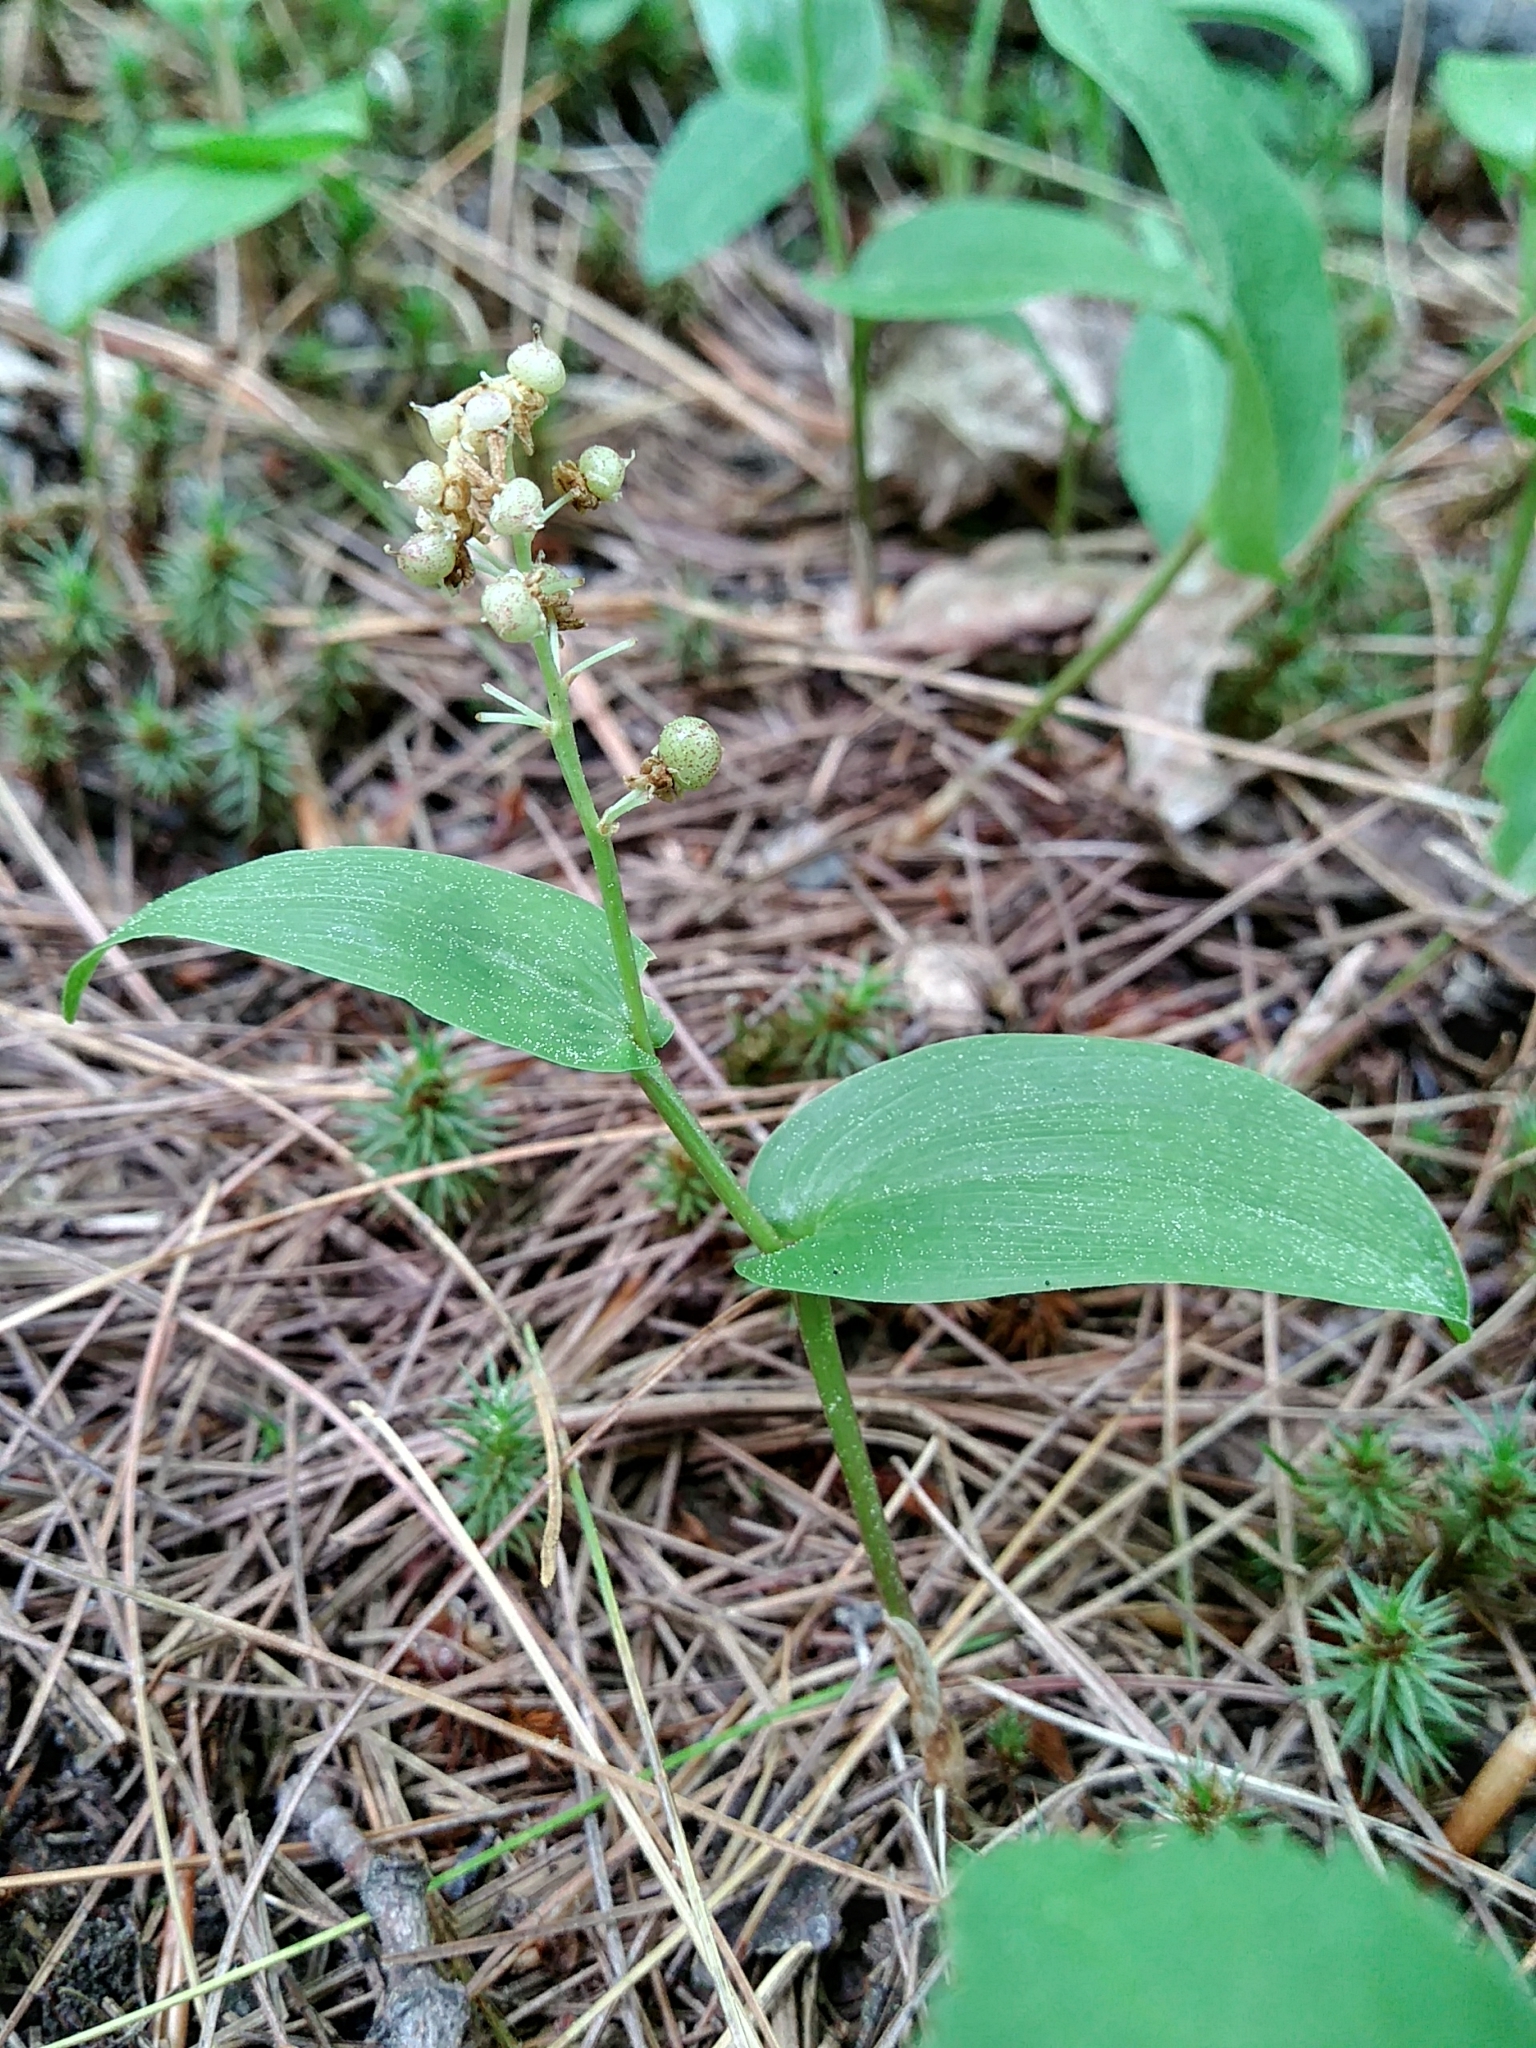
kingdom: Plantae
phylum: Tracheophyta
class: Liliopsida
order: Asparagales
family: Asparagaceae
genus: Maianthemum
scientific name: Maianthemum canadense
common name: False lily-of-the-valley
